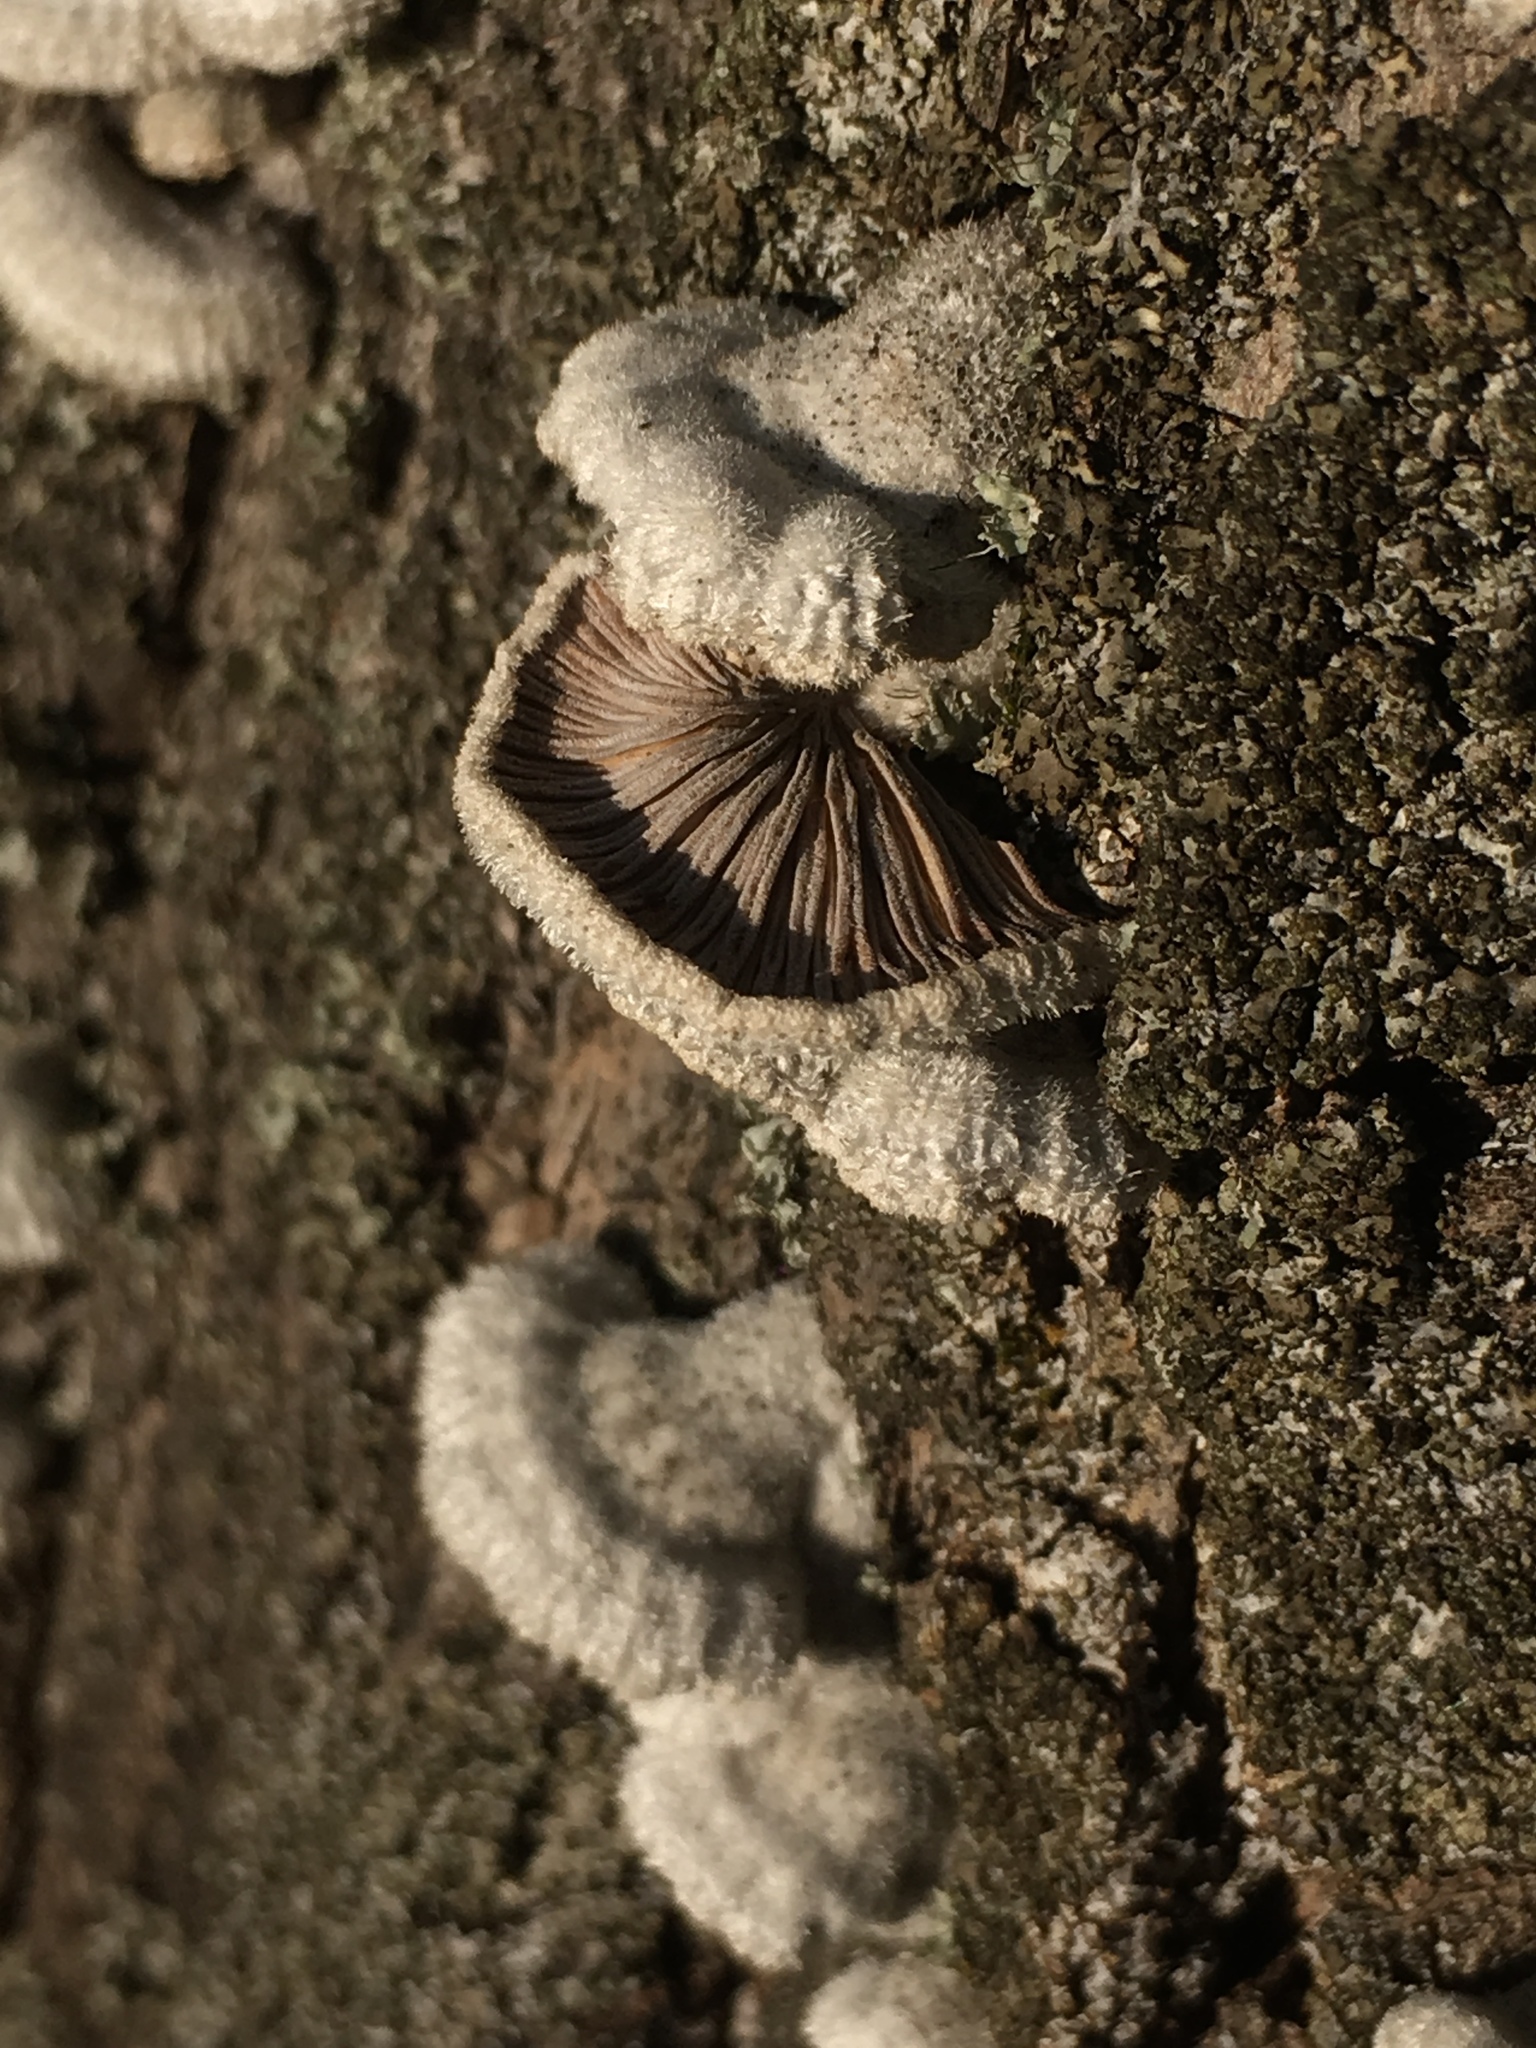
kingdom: Fungi
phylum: Basidiomycota
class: Agaricomycetes
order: Agaricales
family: Schizophyllaceae
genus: Schizophyllum
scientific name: Schizophyllum commune
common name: Common porecrust
